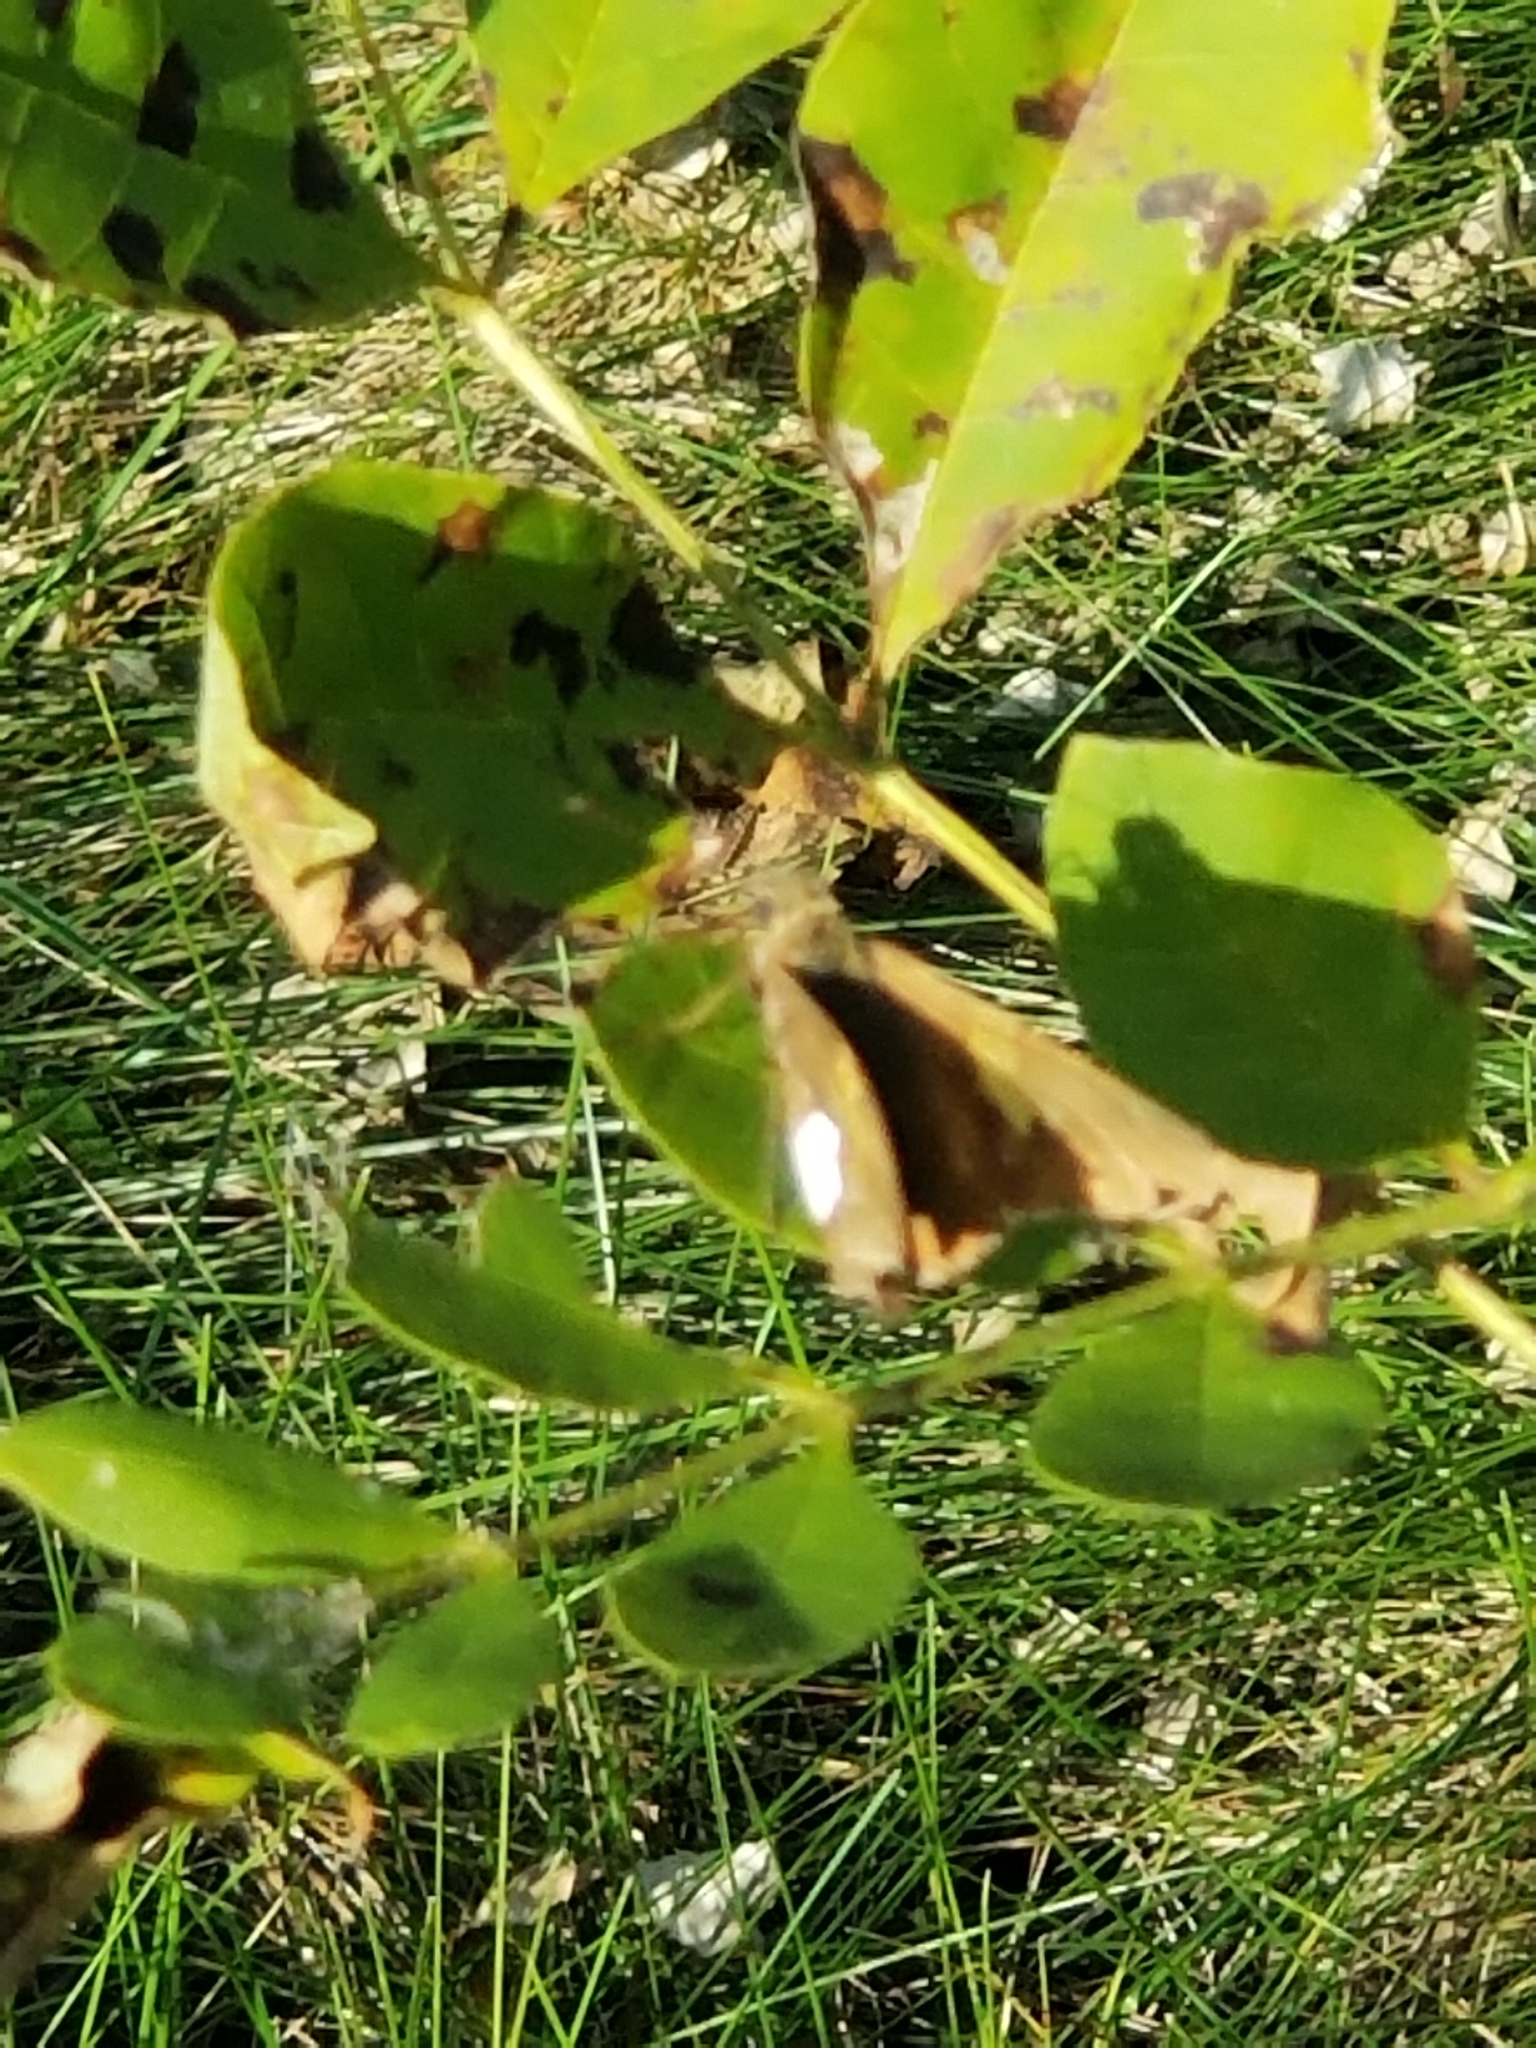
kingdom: Animalia
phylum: Arthropoda
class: Insecta
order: Lepidoptera
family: Hesperiidae
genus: Epargyreus
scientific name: Epargyreus clarus
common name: Silver-spotted skipper
